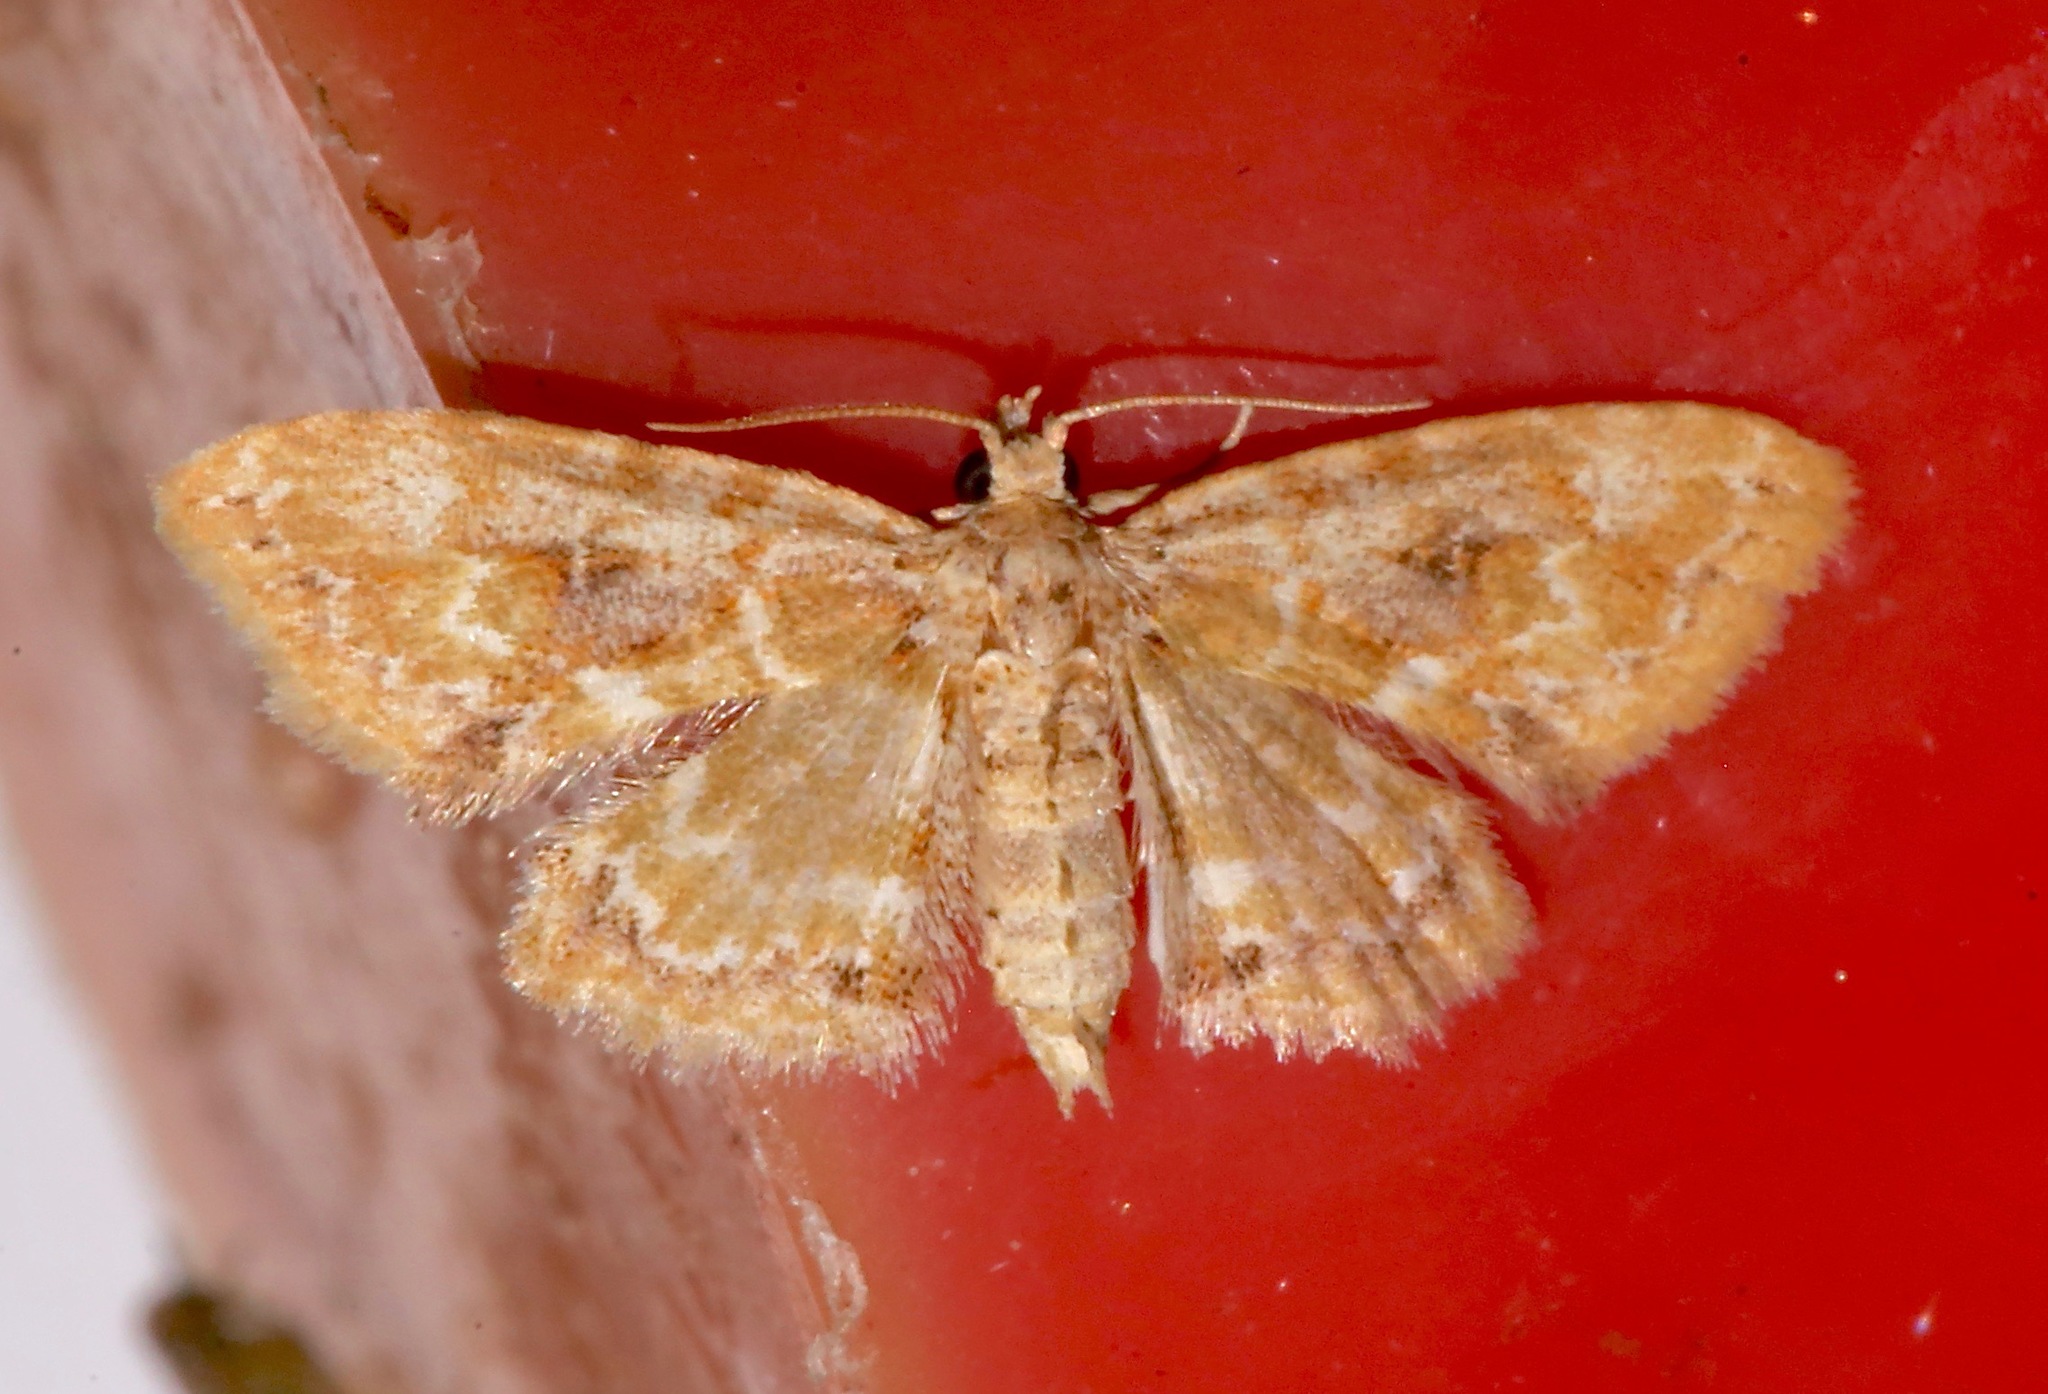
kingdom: Animalia
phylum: Arthropoda
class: Insecta
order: Lepidoptera
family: Erebidae
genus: Sigela
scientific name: Sigela sordes
